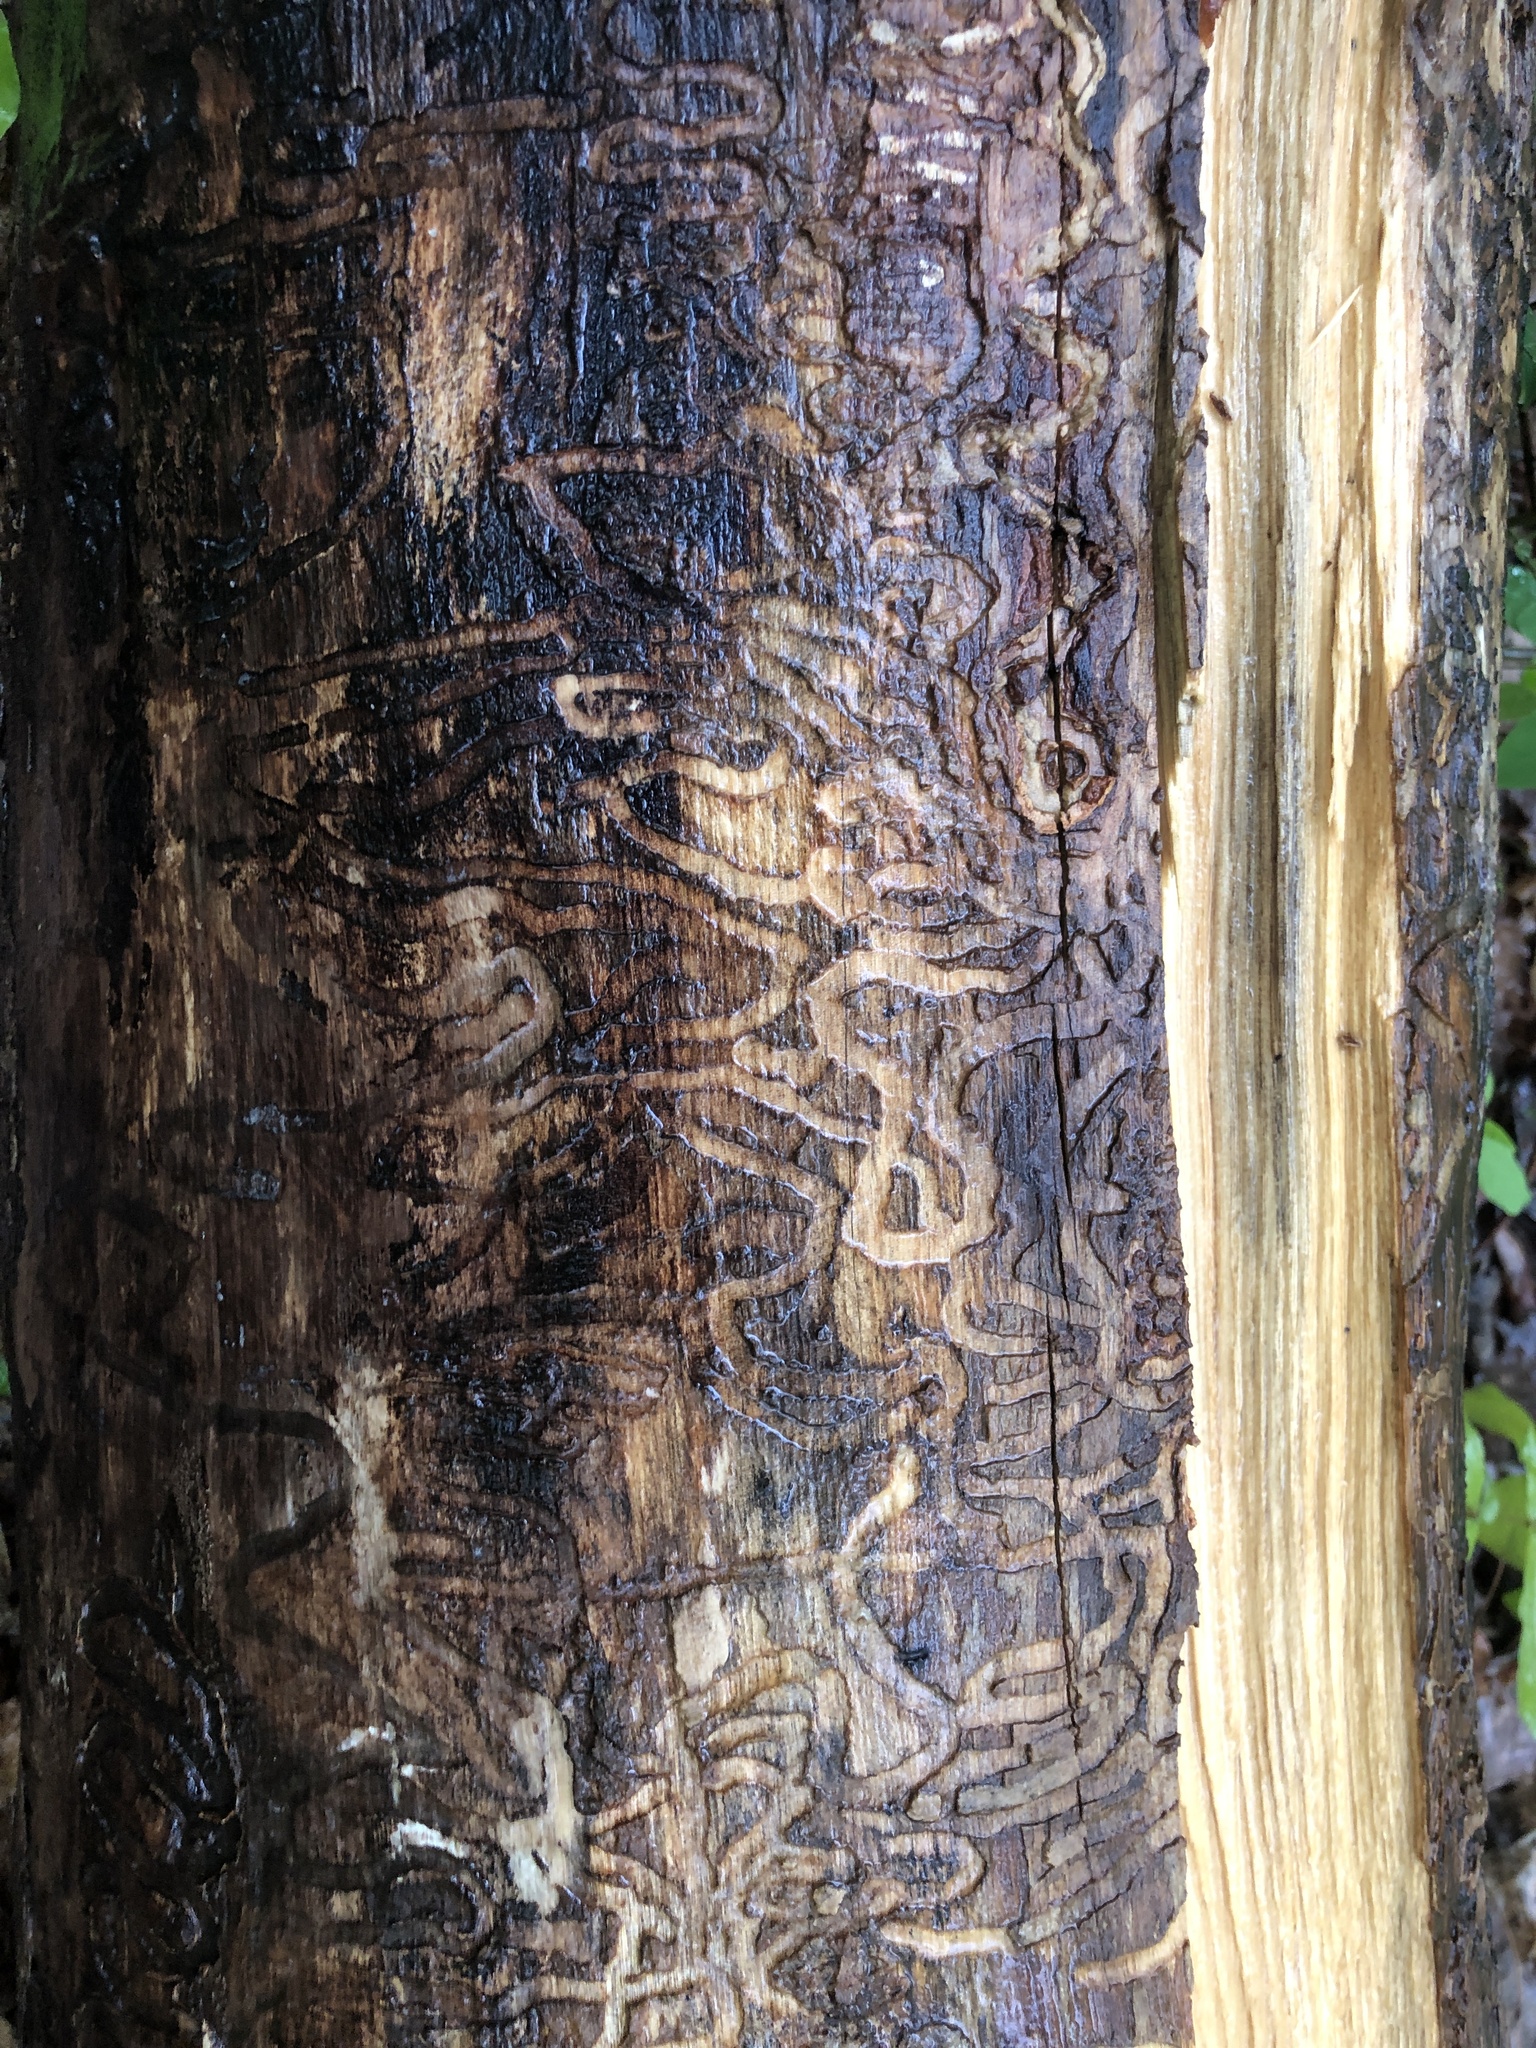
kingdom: Animalia
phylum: Arthropoda
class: Insecta
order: Coleoptera
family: Buprestidae
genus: Agrilus
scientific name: Agrilus planipennis
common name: Emerald ash borer
